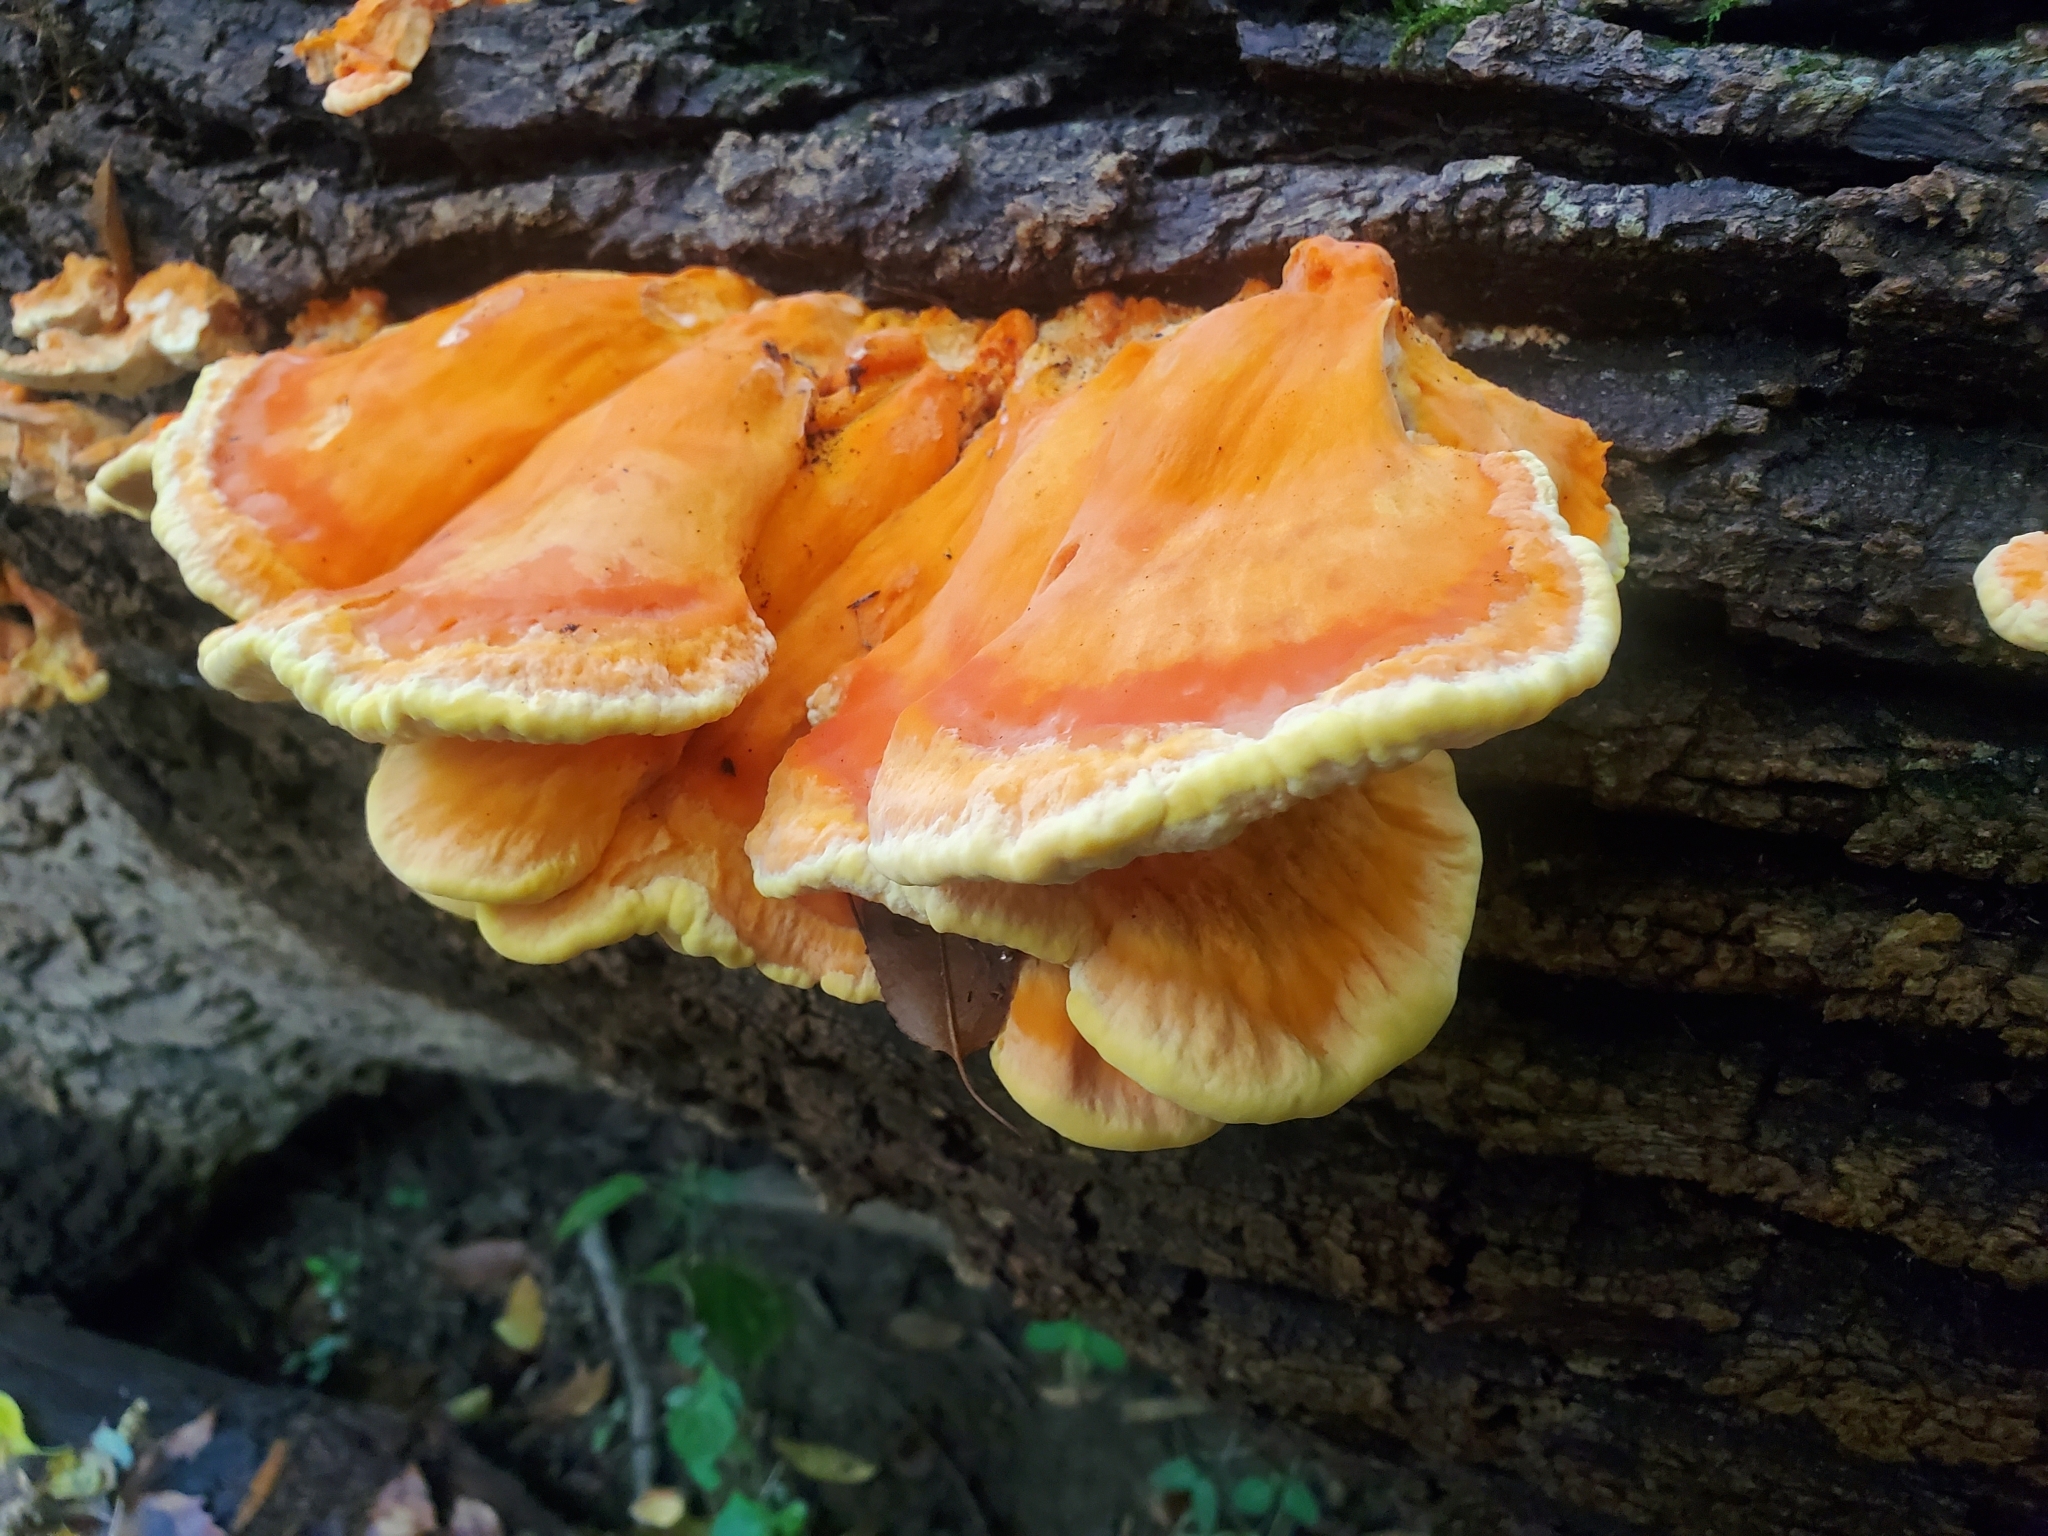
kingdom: Fungi
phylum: Basidiomycota
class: Agaricomycetes
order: Polyporales
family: Laetiporaceae
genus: Laetiporus
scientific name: Laetiporus sulphureus
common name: Chicken of the woods
